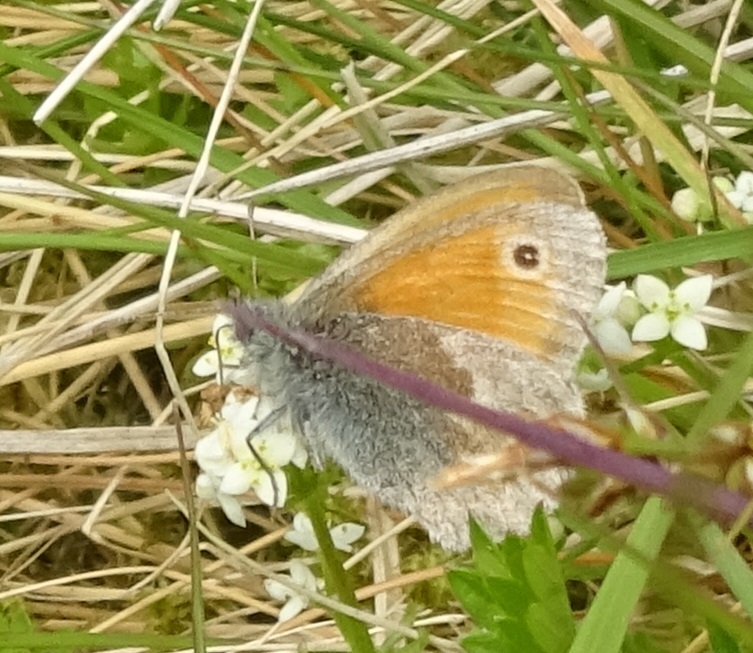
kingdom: Animalia
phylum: Arthropoda
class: Insecta
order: Lepidoptera
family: Nymphalidae
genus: Coenonympha
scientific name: Coenonympha pamphilus
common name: Small heath
